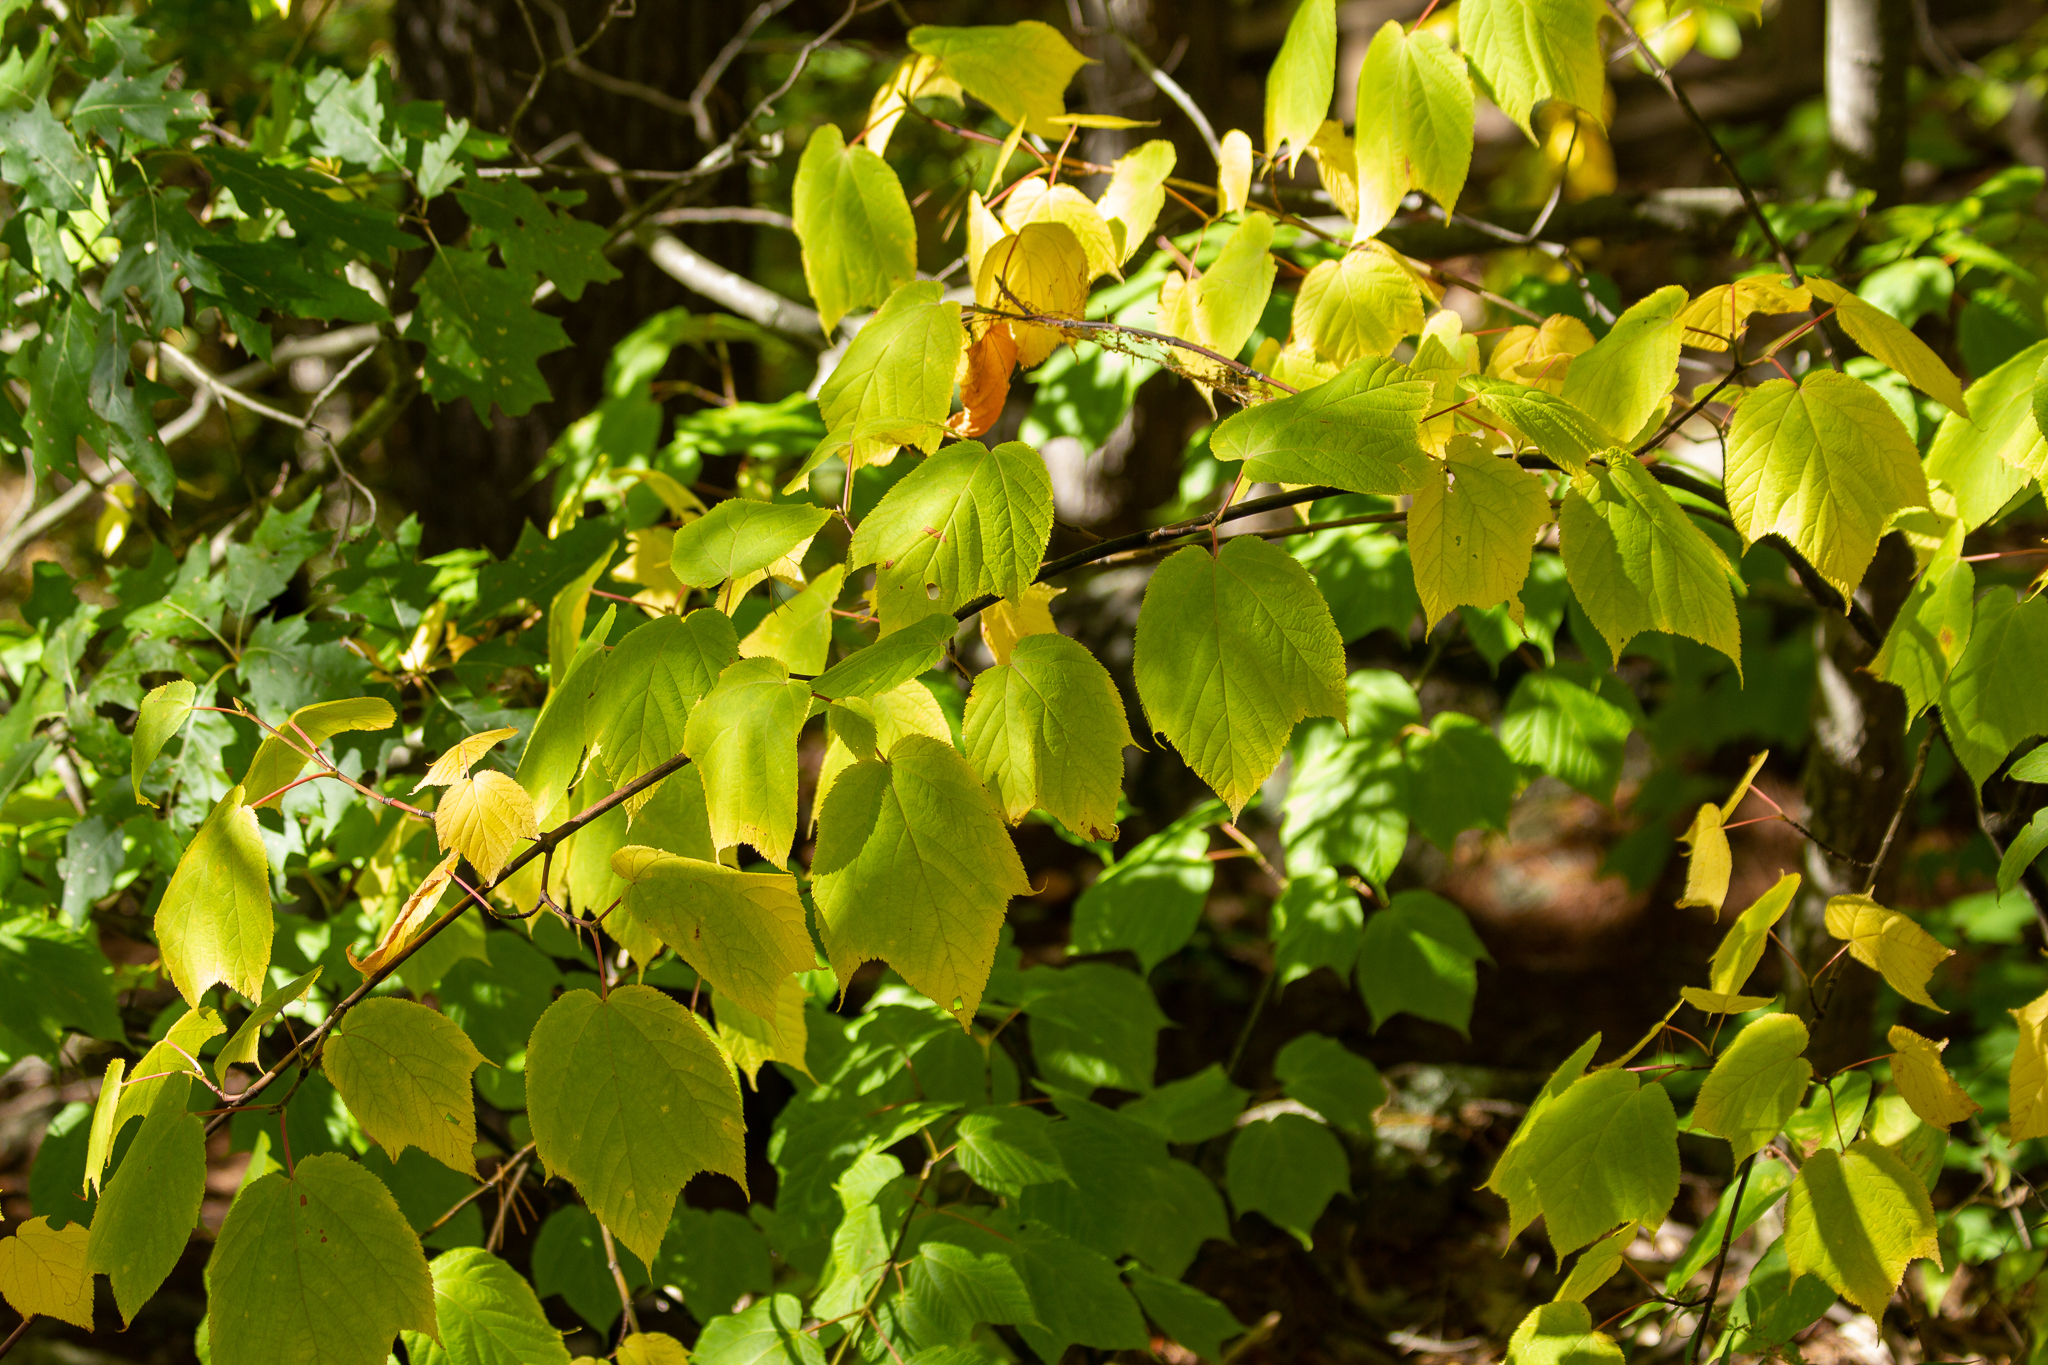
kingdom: Plantae
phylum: Tracheophyta
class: Magnoliopsida
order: Sapindales
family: Sapindaceae
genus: Acer
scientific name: Acer pensylvanicum
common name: Moosewood
